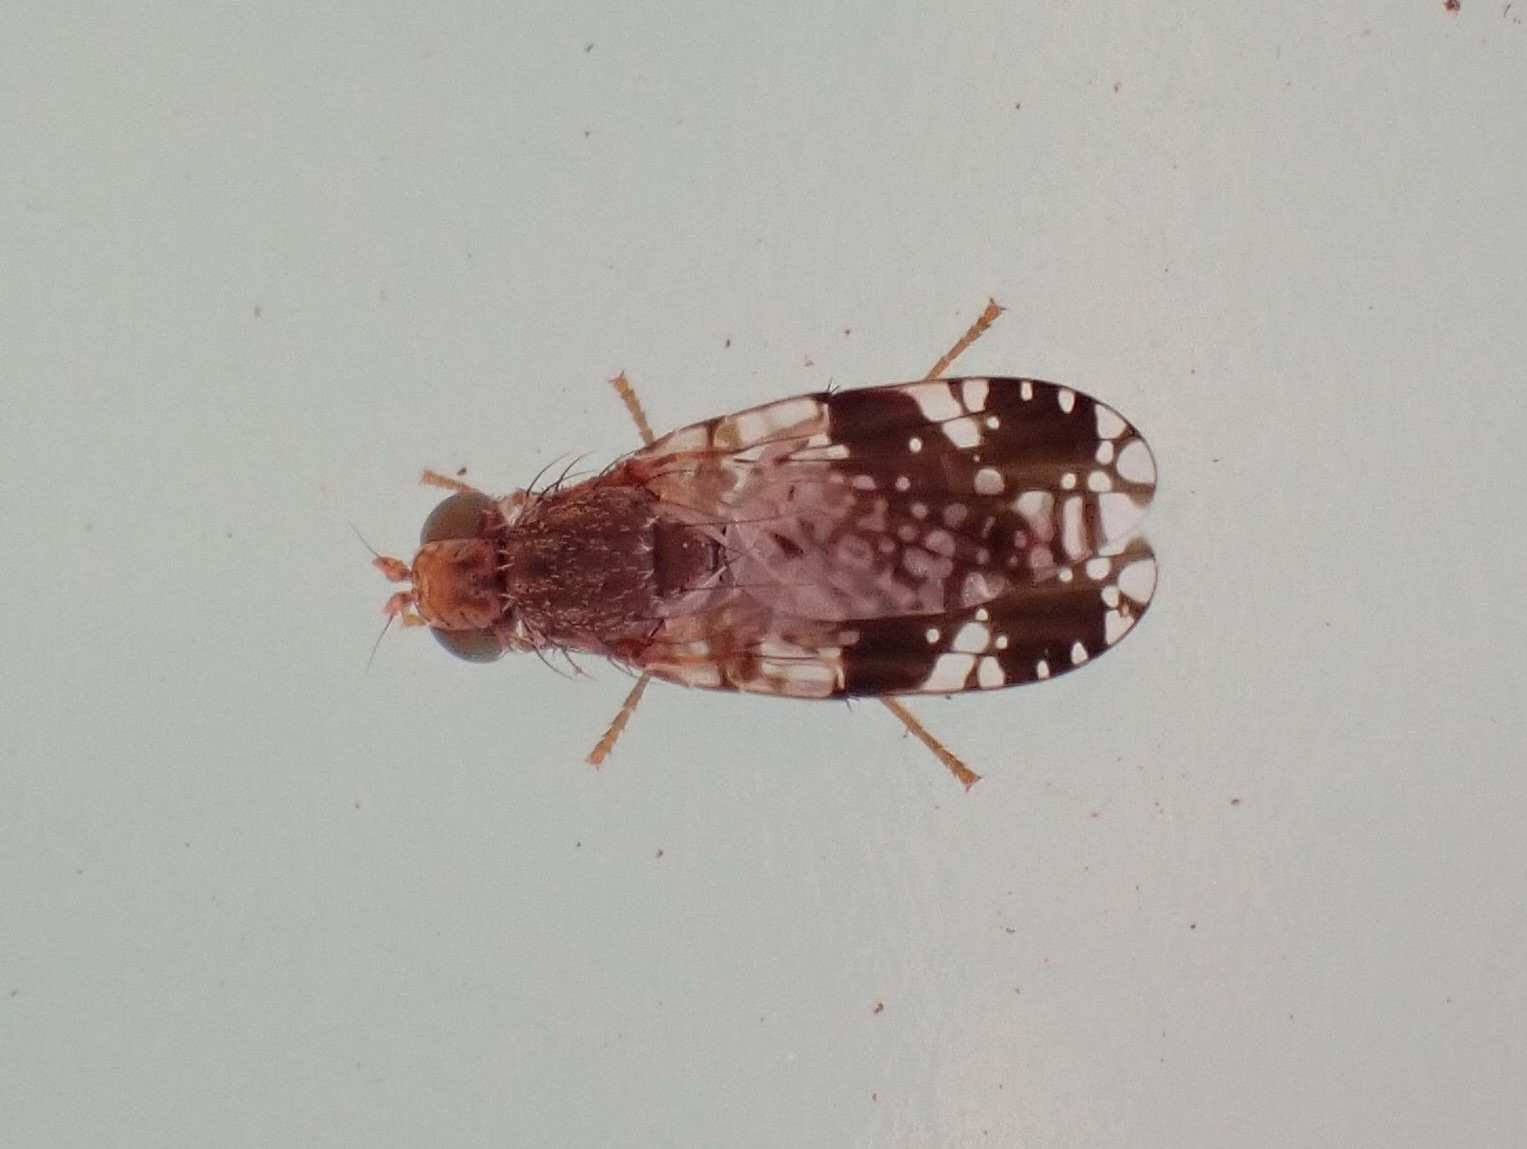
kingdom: Animalia
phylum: Arthropoda
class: Insecta
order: Diptera
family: Tephritidae
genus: Tephritis
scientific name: Tephritis pura
